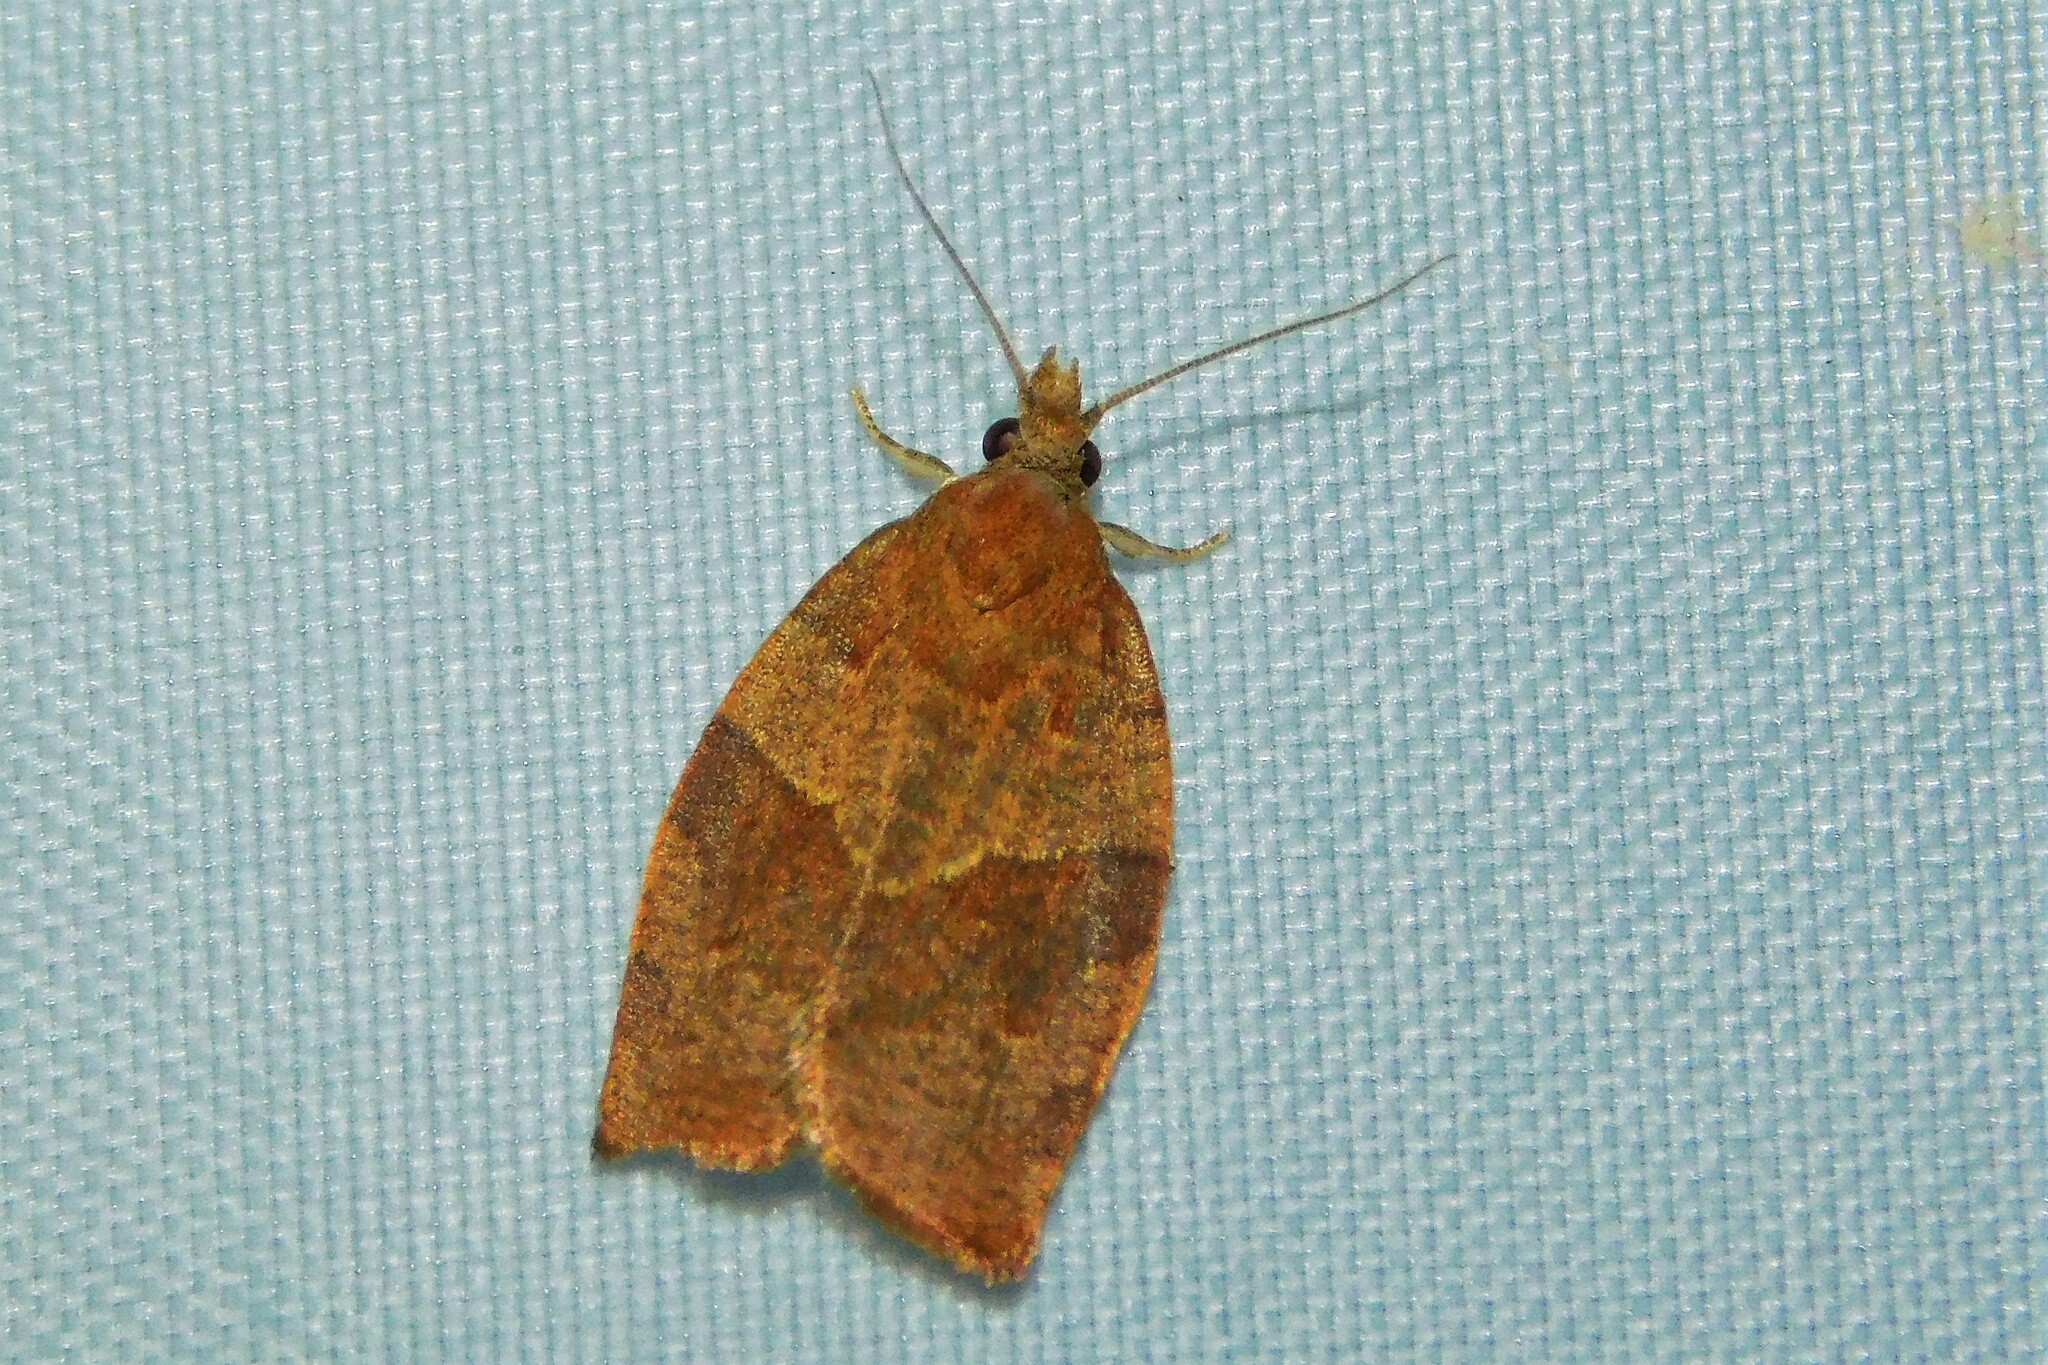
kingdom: Animalia
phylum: Arthropoda
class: Insecta
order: Lepidoptera
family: Tortricidae
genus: Pandemis
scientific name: Pandemis heparana
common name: Dark fruit-tree tortrix
